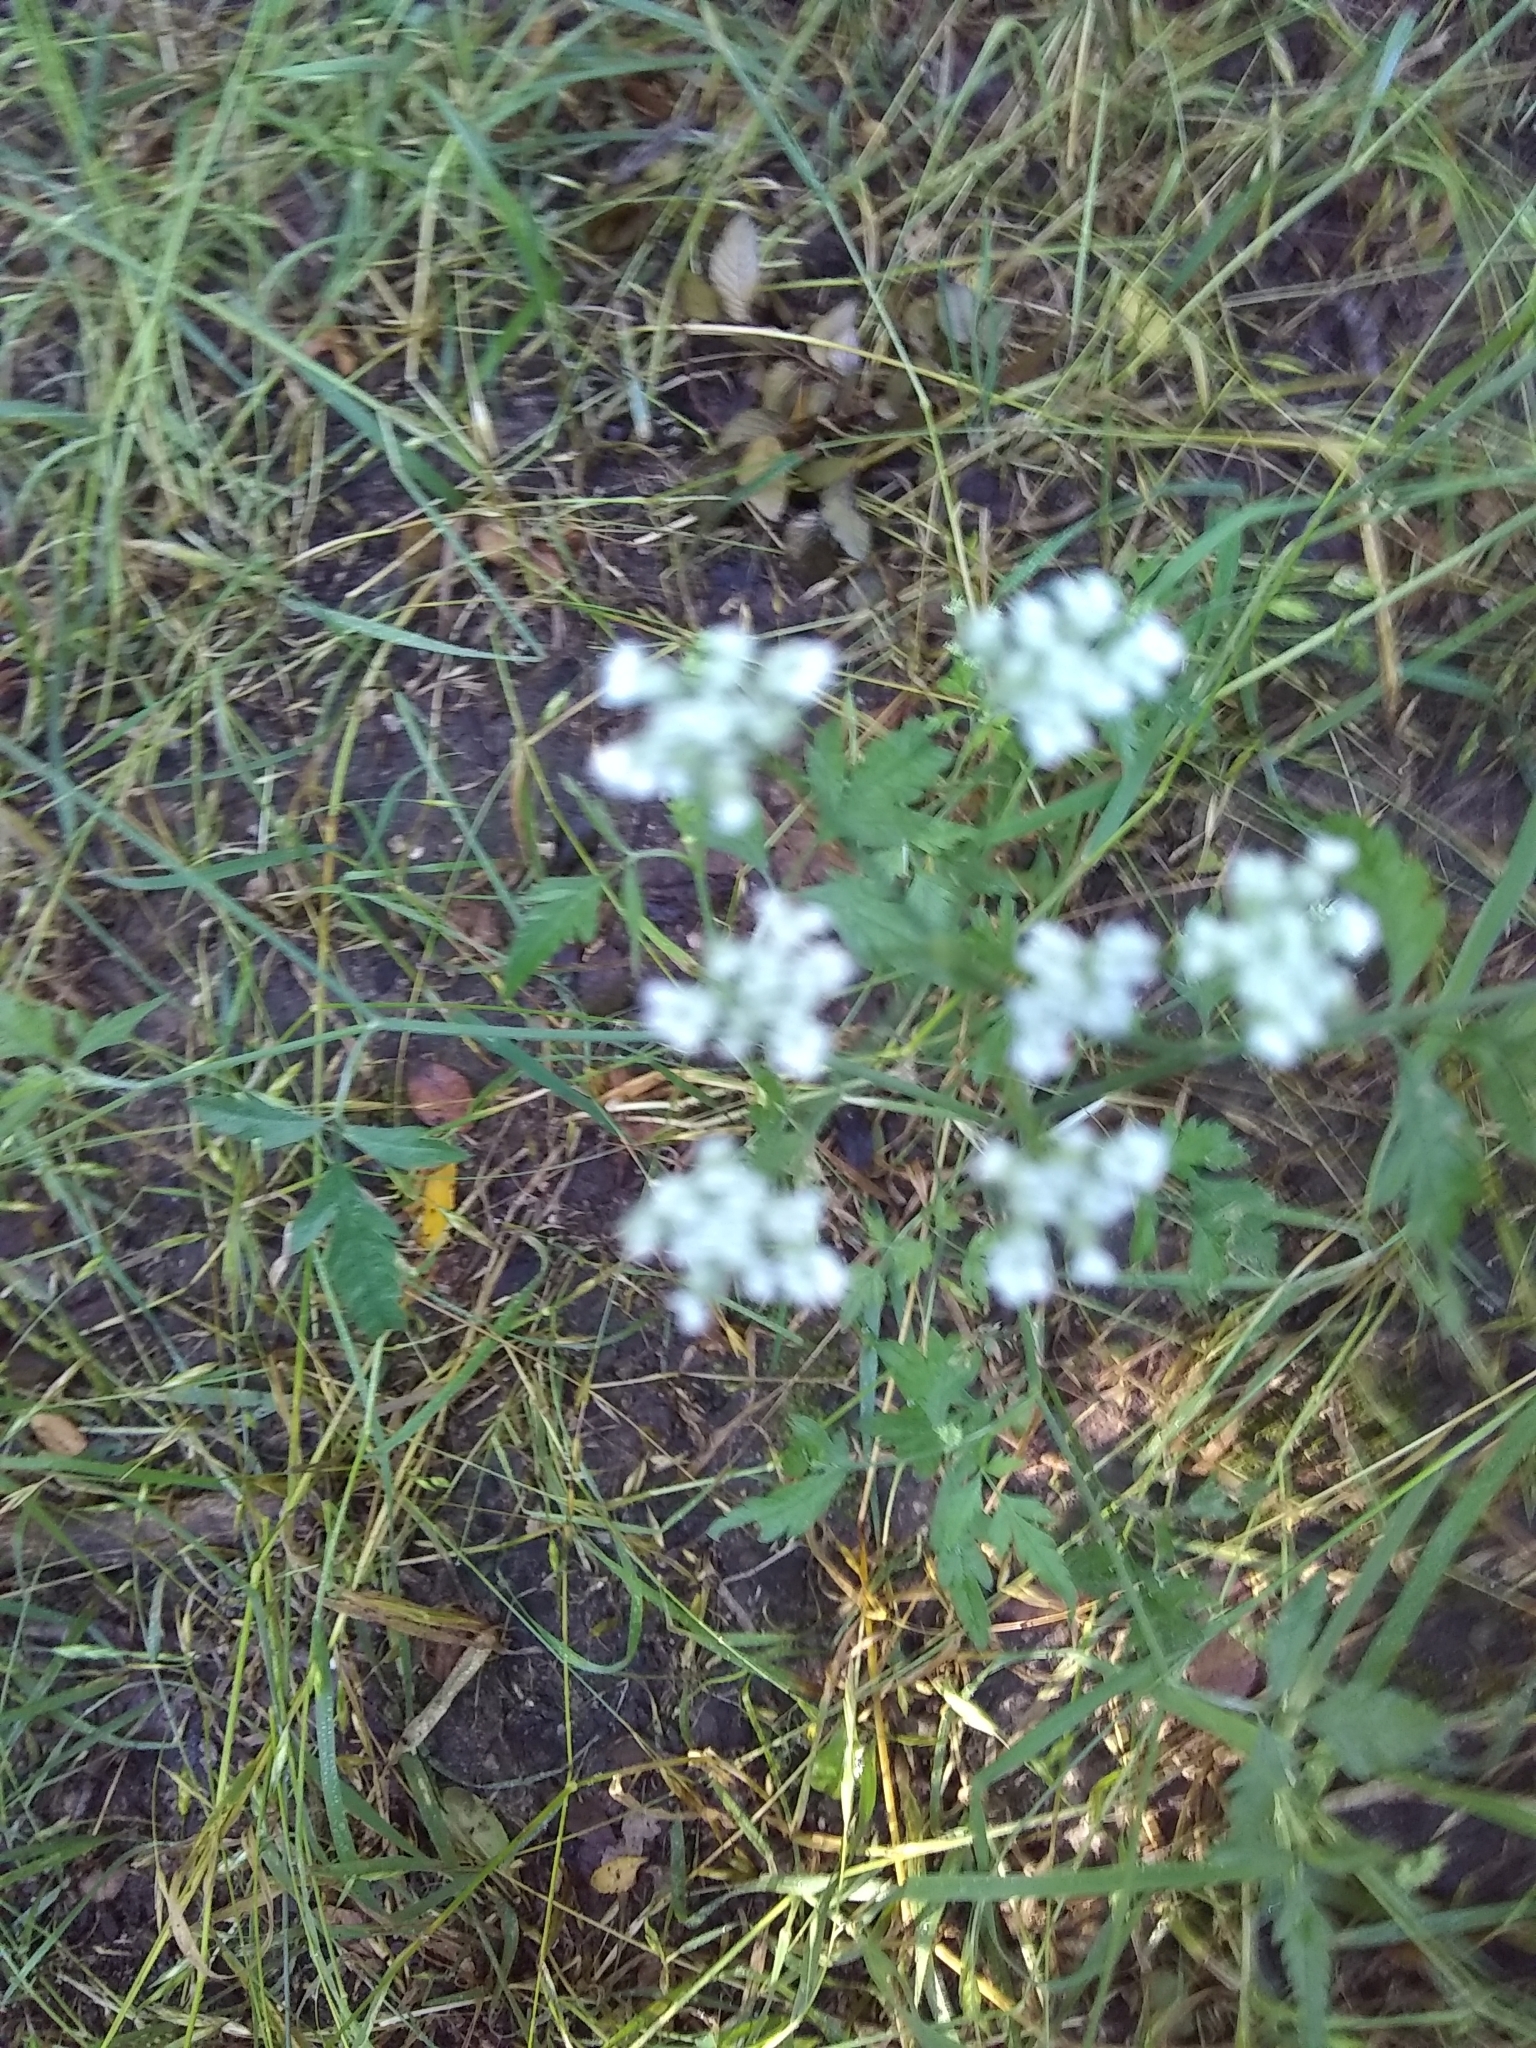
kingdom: Plantae
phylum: Tracheophyta
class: Magnoliopsida
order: Apiales
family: Apiaceae
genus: Torilis
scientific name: Torilis arvensis
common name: Spreading hedge-parsley
